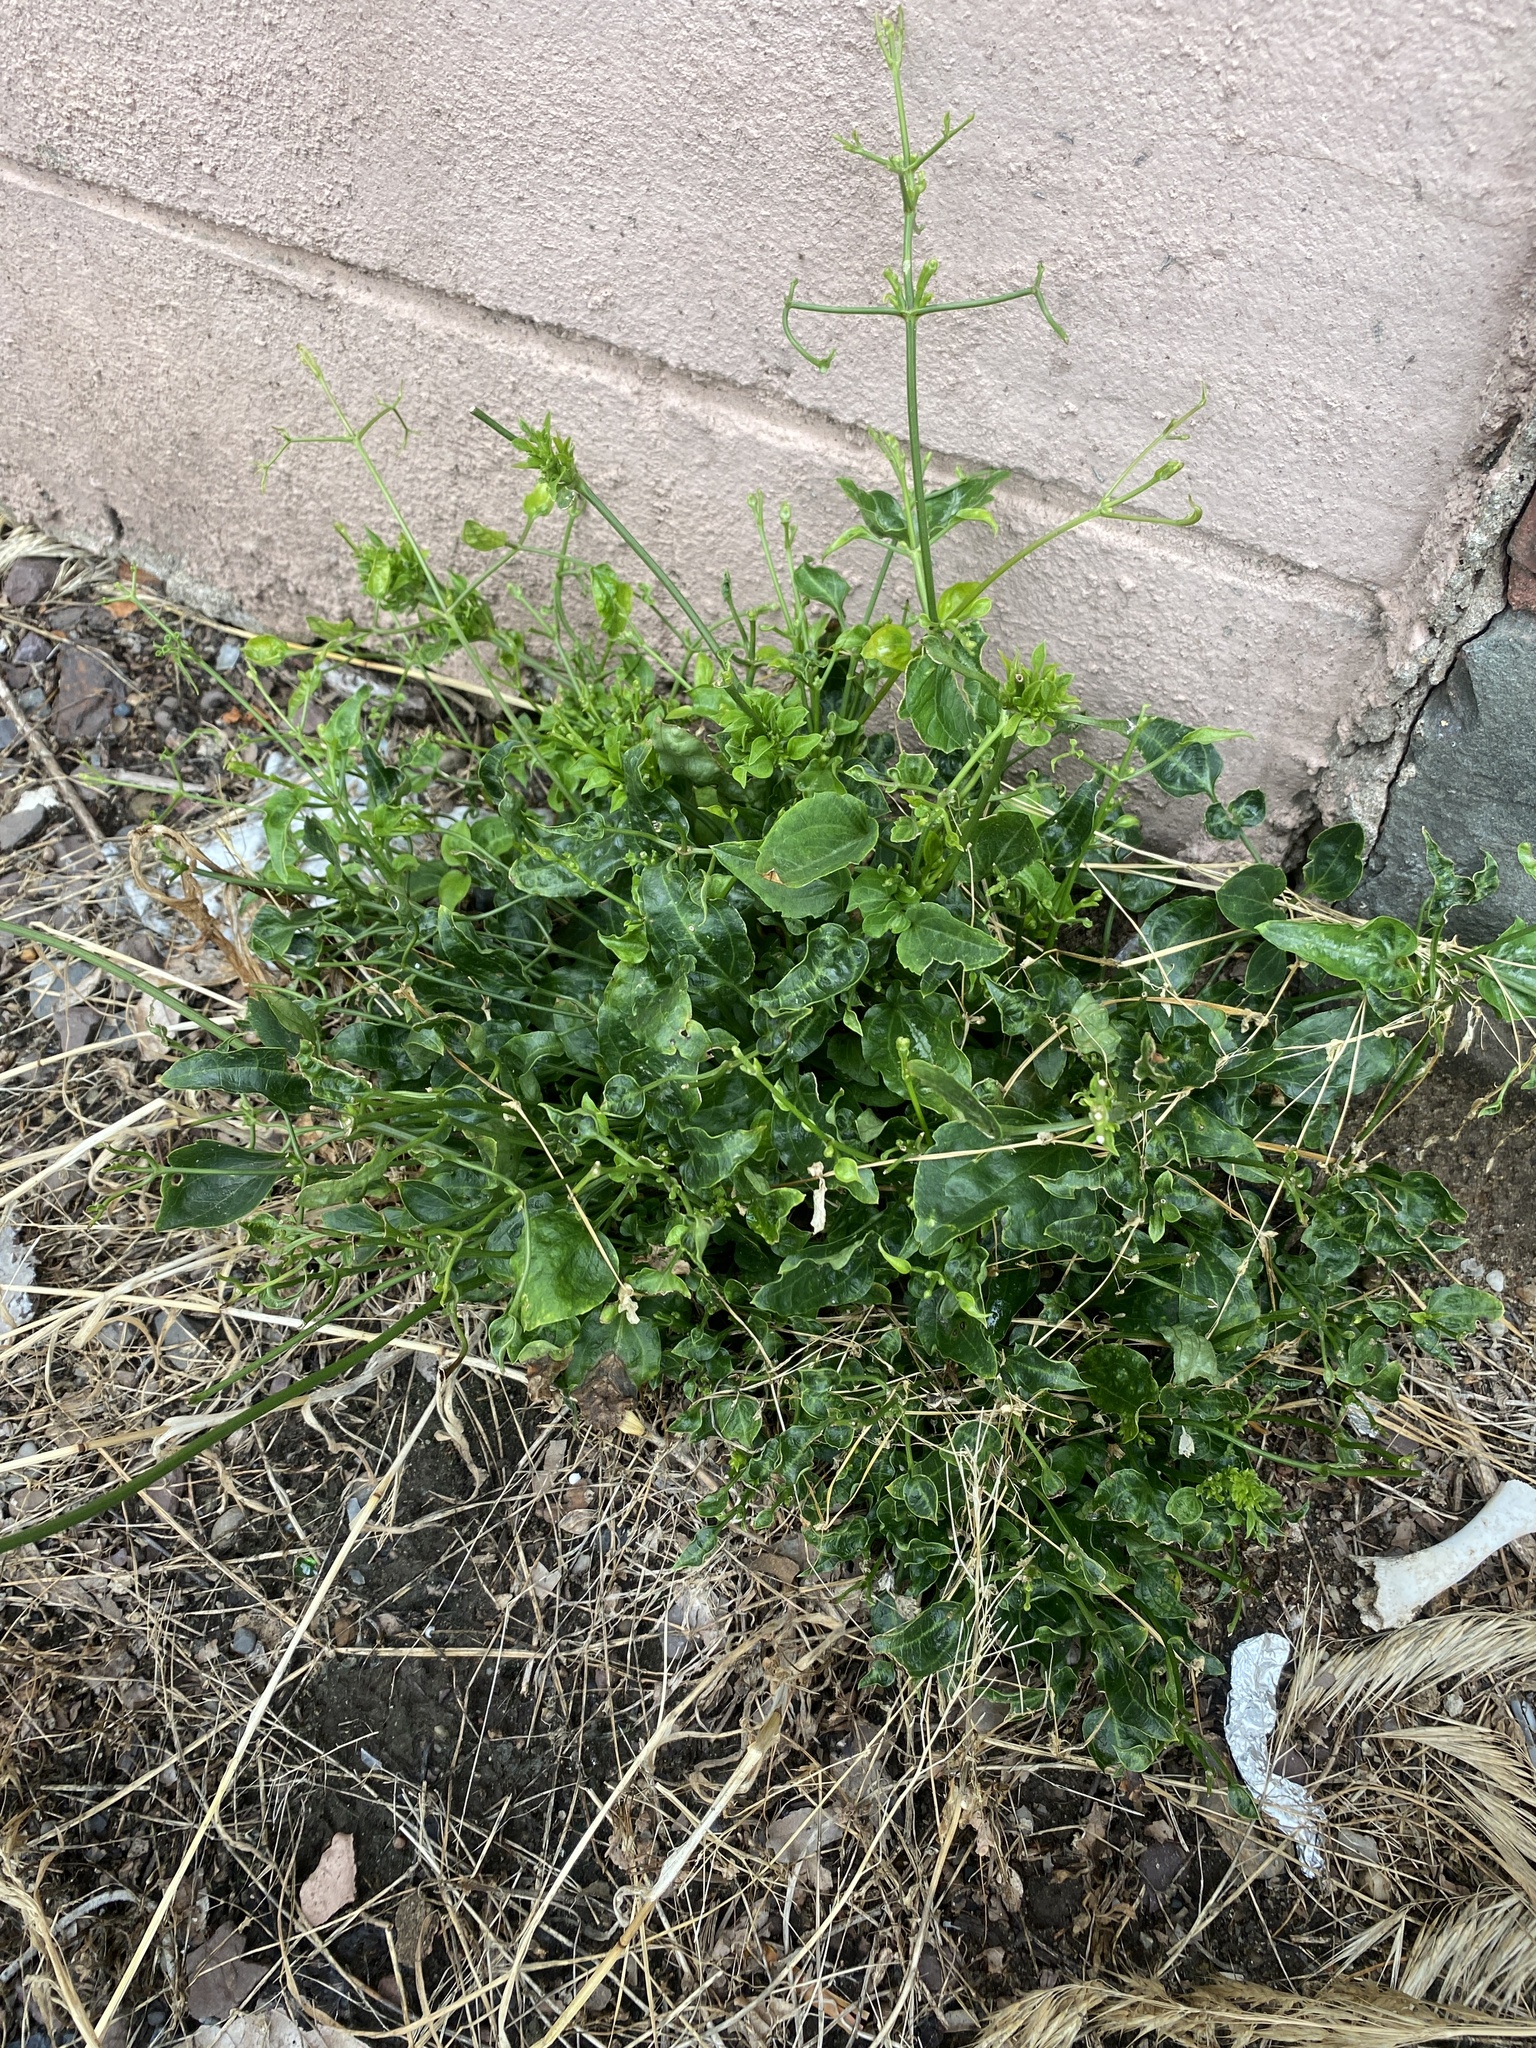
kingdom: Plantae
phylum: Tracheophyta
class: Magnoliopsida
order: Ranunculales
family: Ranunculaceae
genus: Clematis
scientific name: Clematis terniflora
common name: Sweet autumn clematis
